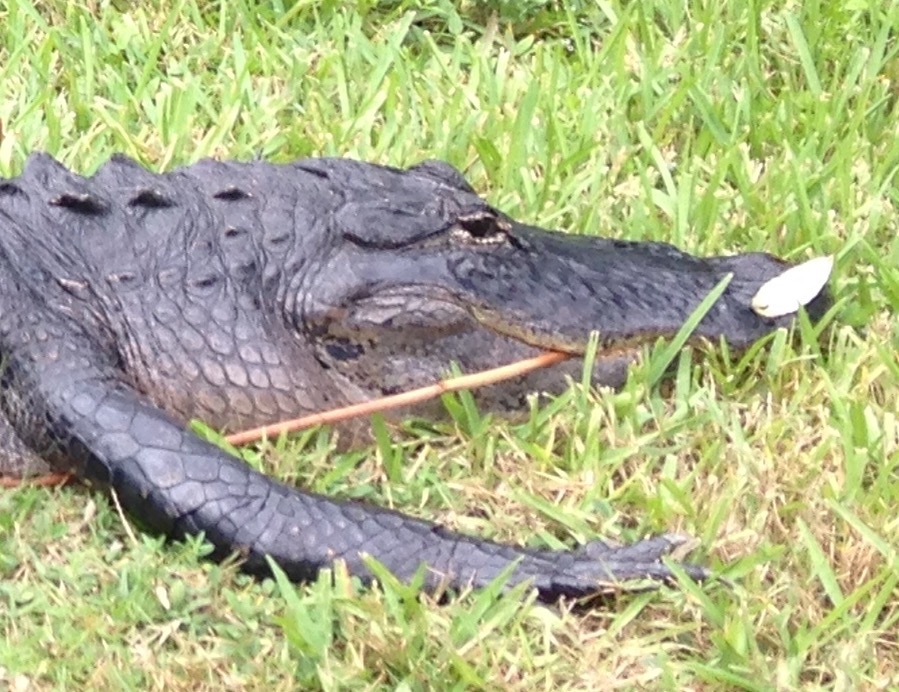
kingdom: Animalia
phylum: Chordata
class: Crocodylia
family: Alligatoridae
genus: Alligator
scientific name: Alligator mississippiensis
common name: American alligator
